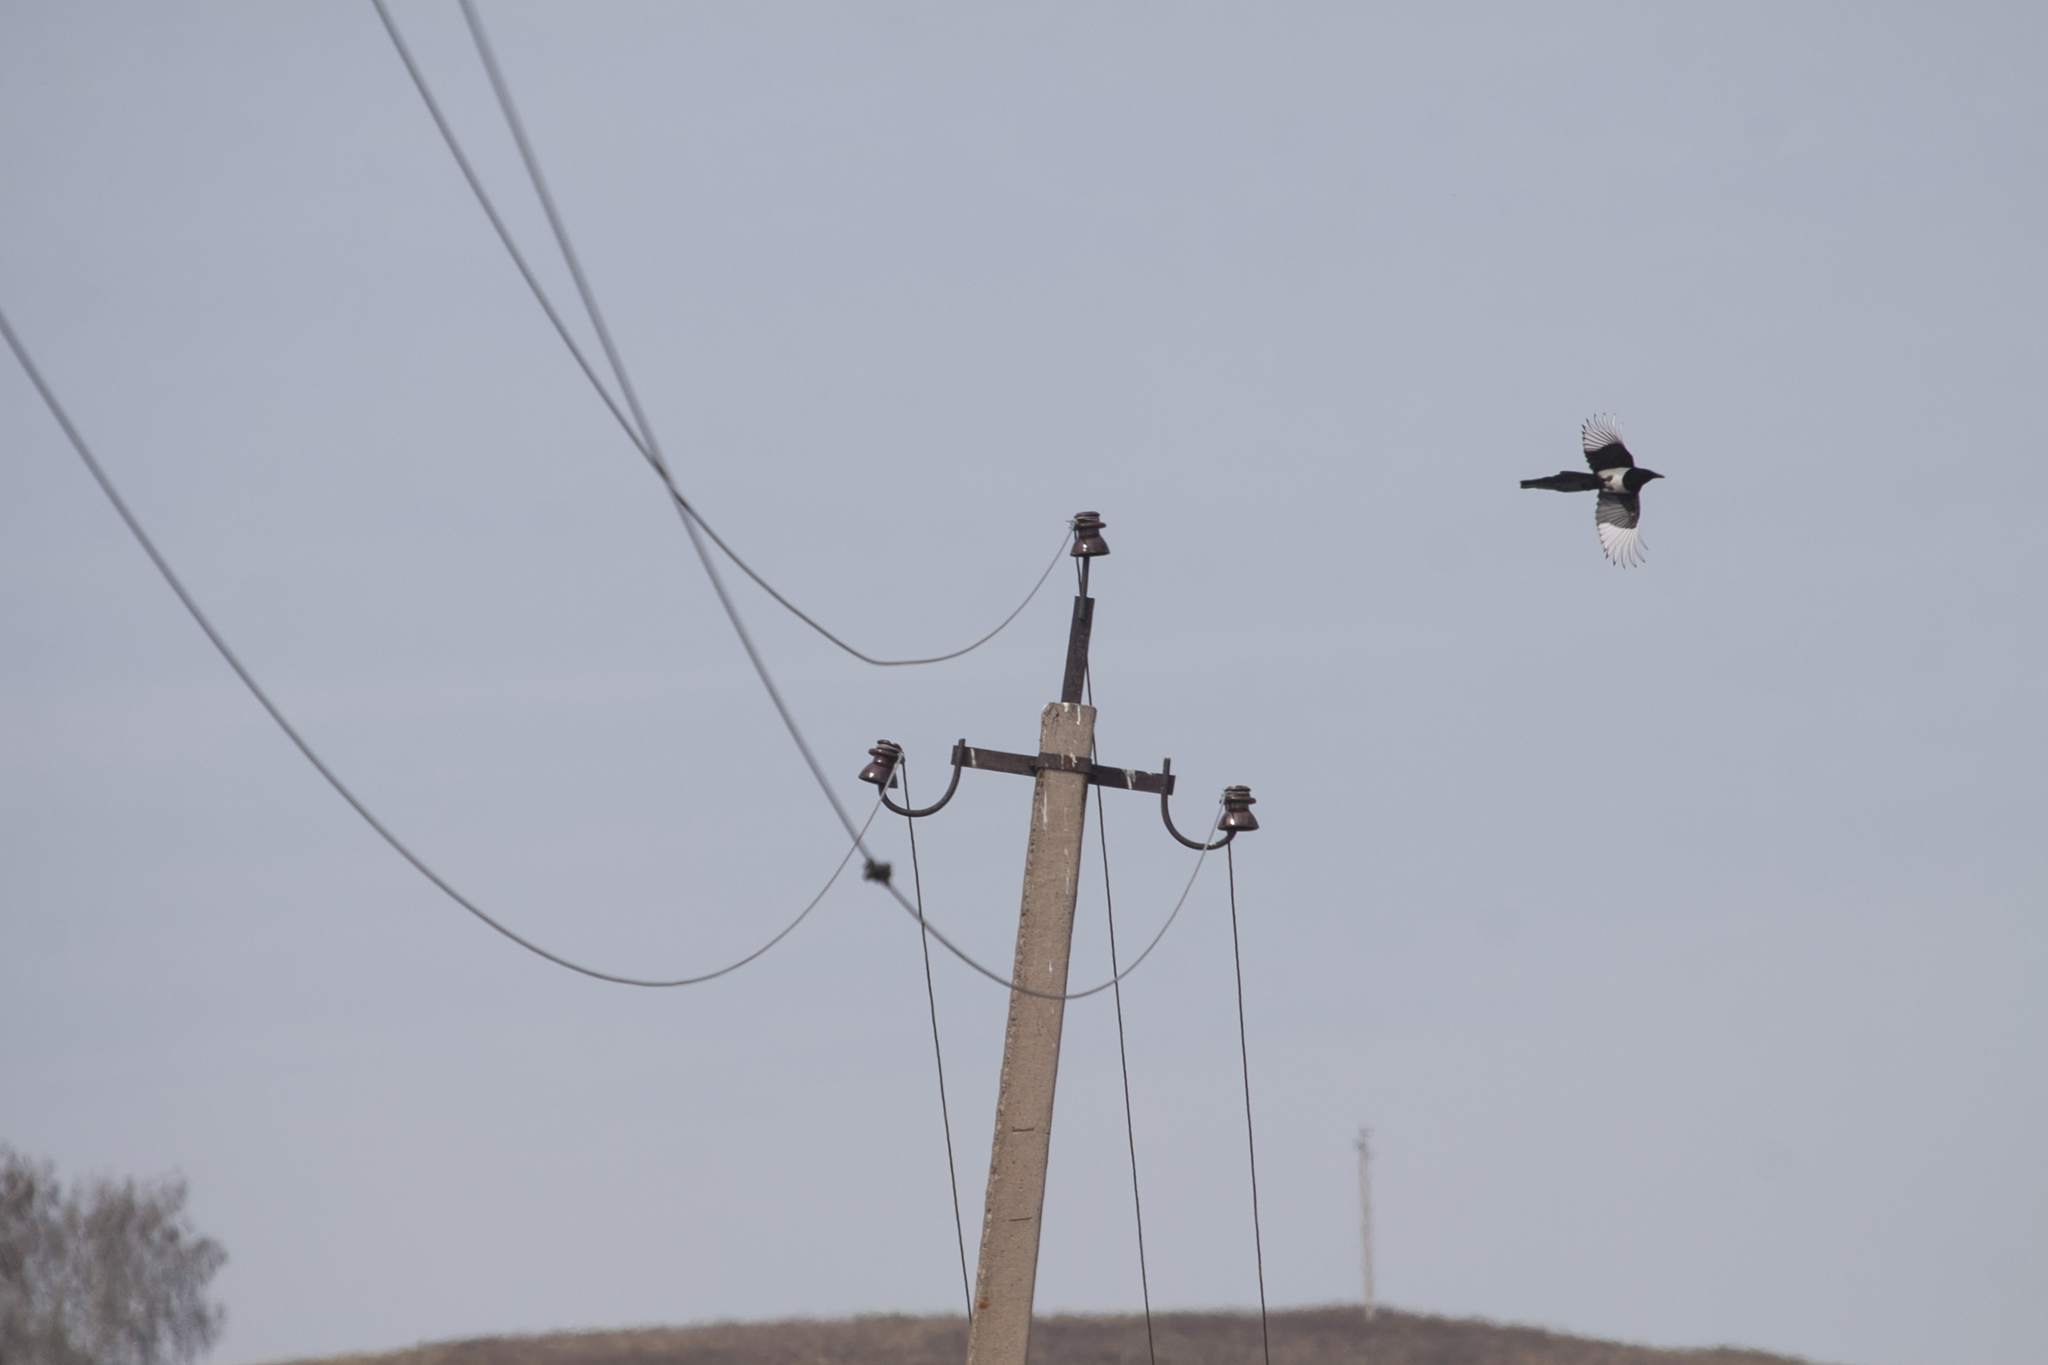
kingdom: Animalia
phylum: Chordata
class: Aves
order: Passeriformes
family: Corvidae
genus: Pica
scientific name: Pica pica
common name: Eurasian magpie
